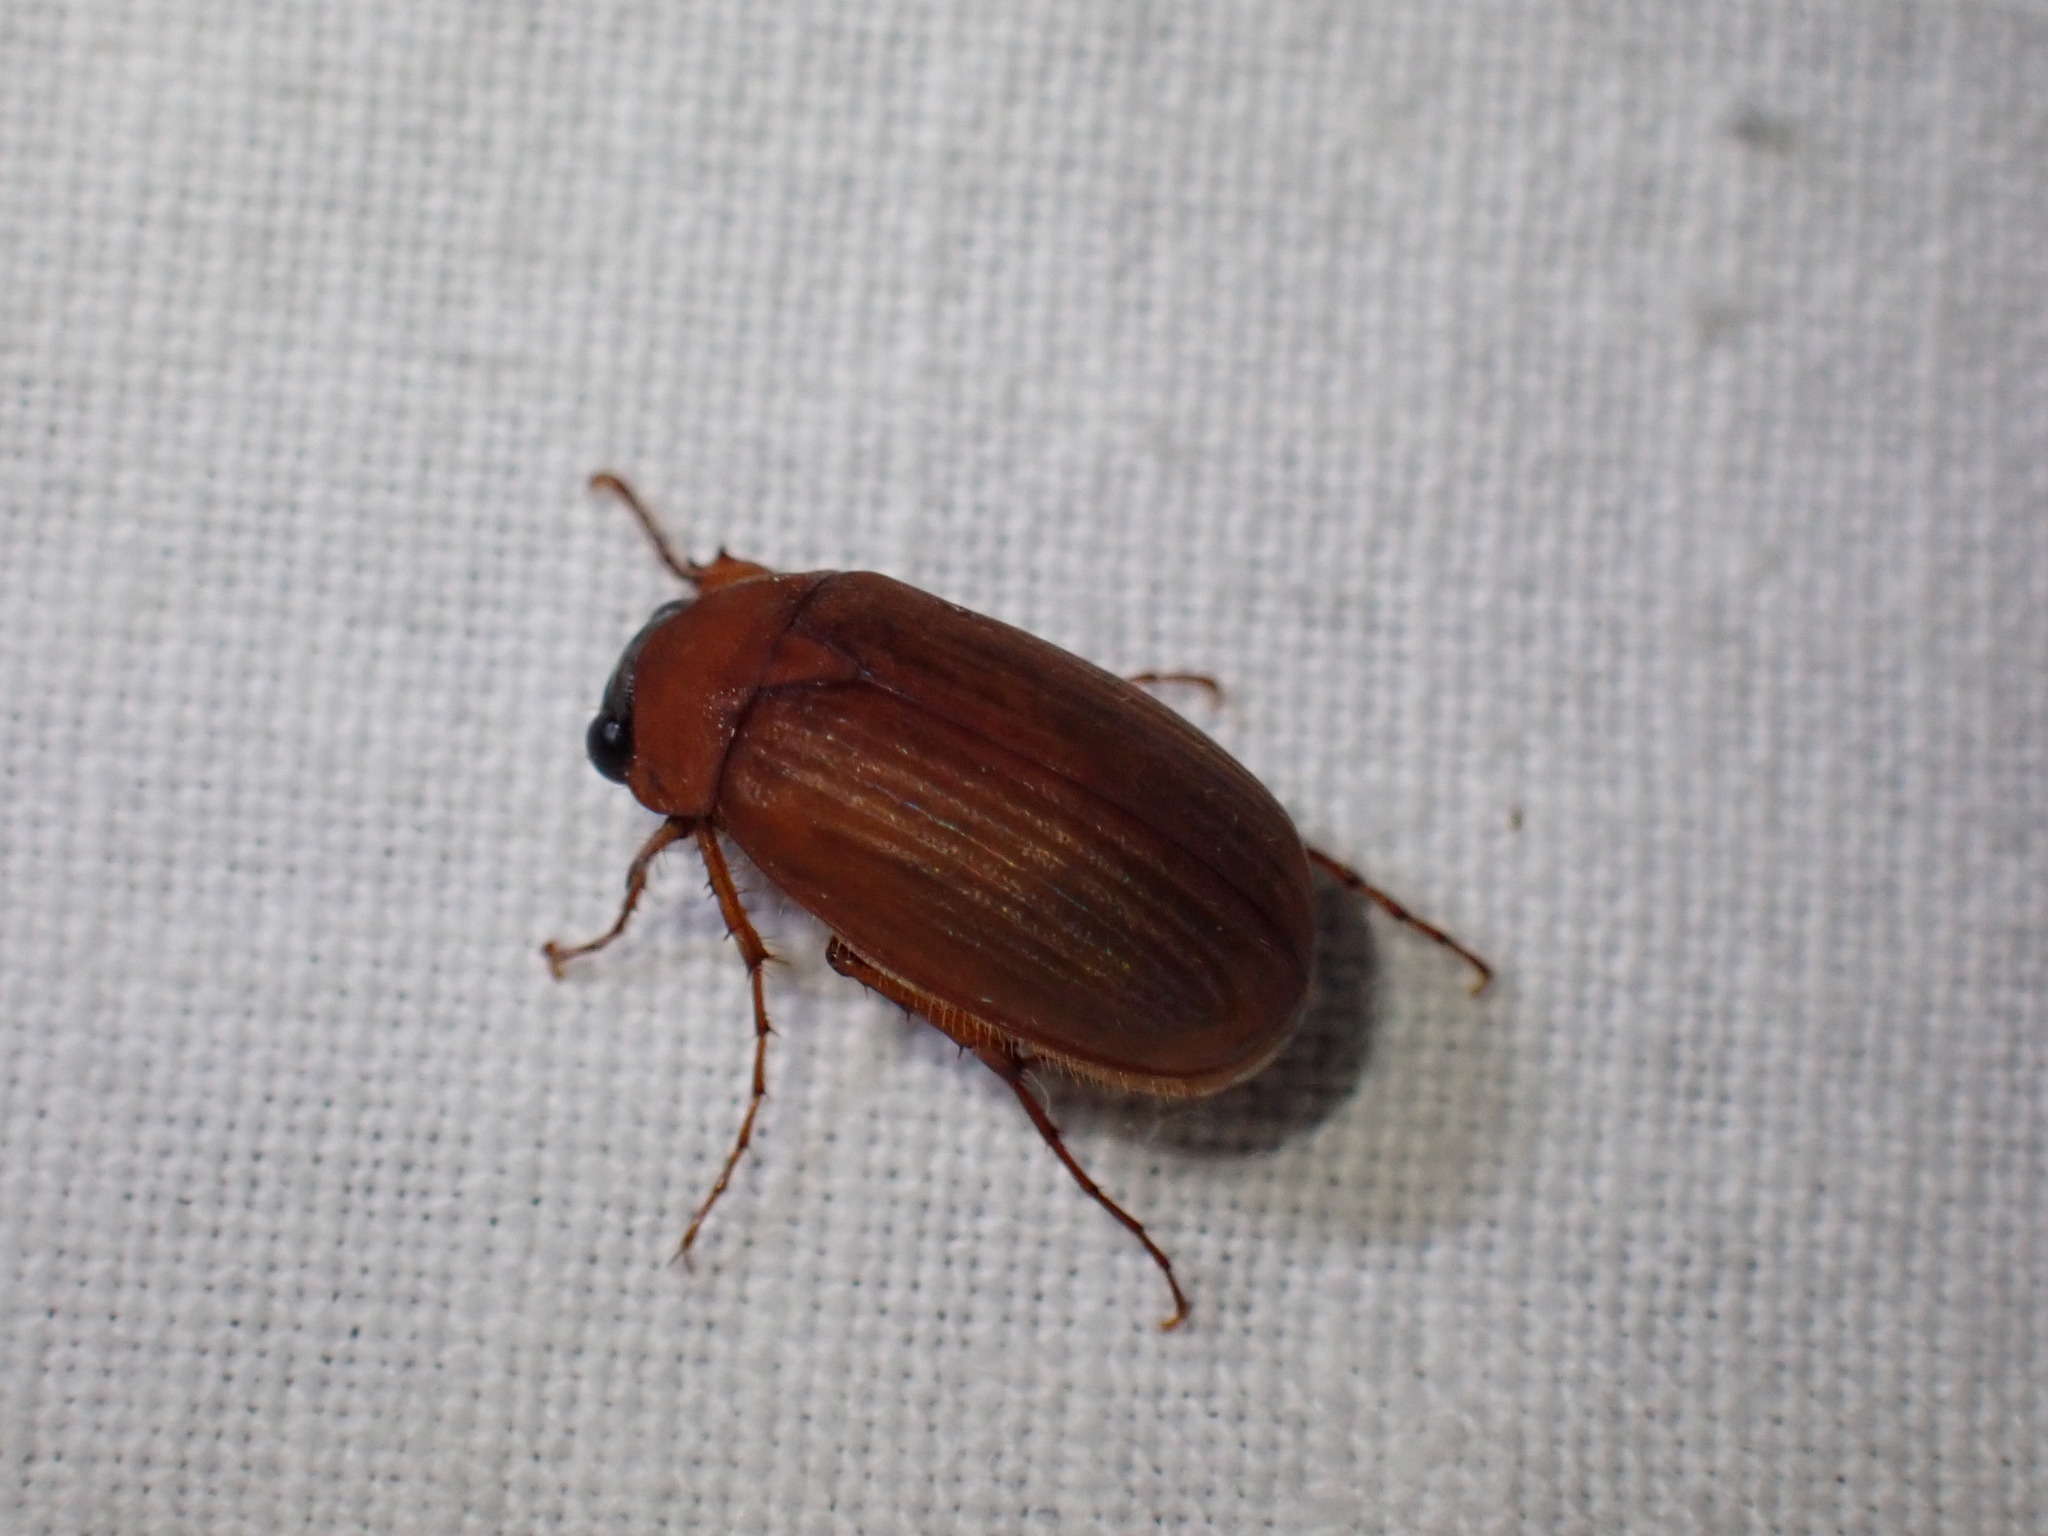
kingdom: Animalia
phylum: Arthropoda
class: Insecta
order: Coleoptera
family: Scarabaeidae
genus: Serica
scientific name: Serica brunnea
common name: Brown chafer
